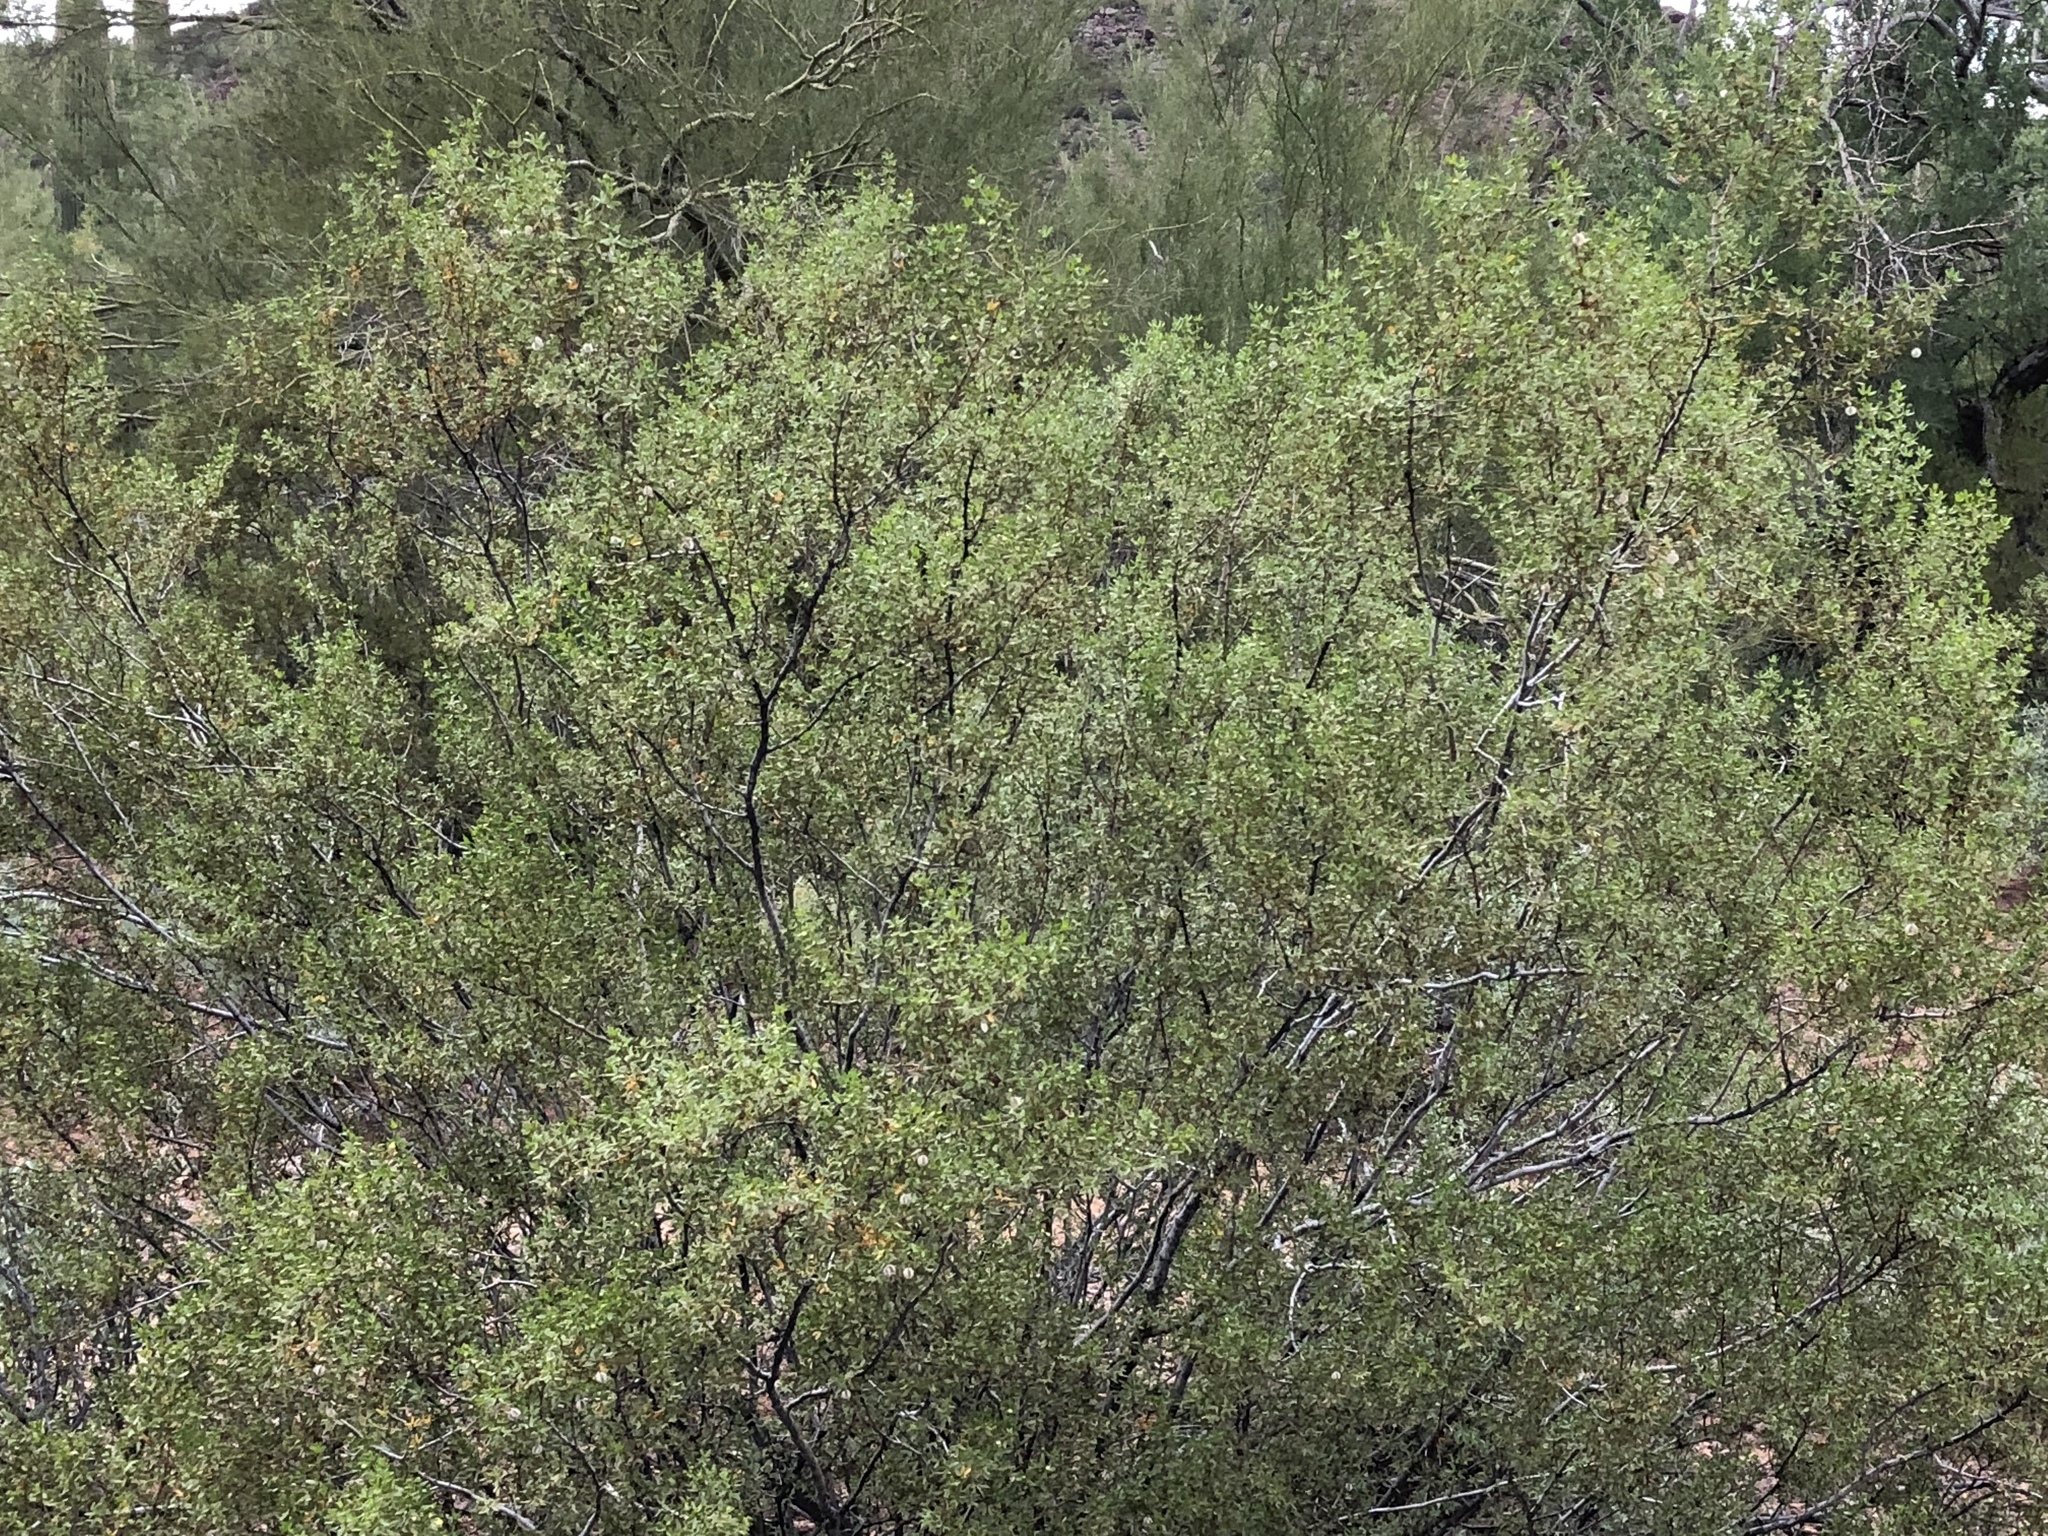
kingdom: Plantae
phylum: Tracheophyta
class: Magnoliopsida
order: Zygophyllales
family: Zygophyllaceae
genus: Larrea
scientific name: Larrea tridentata
